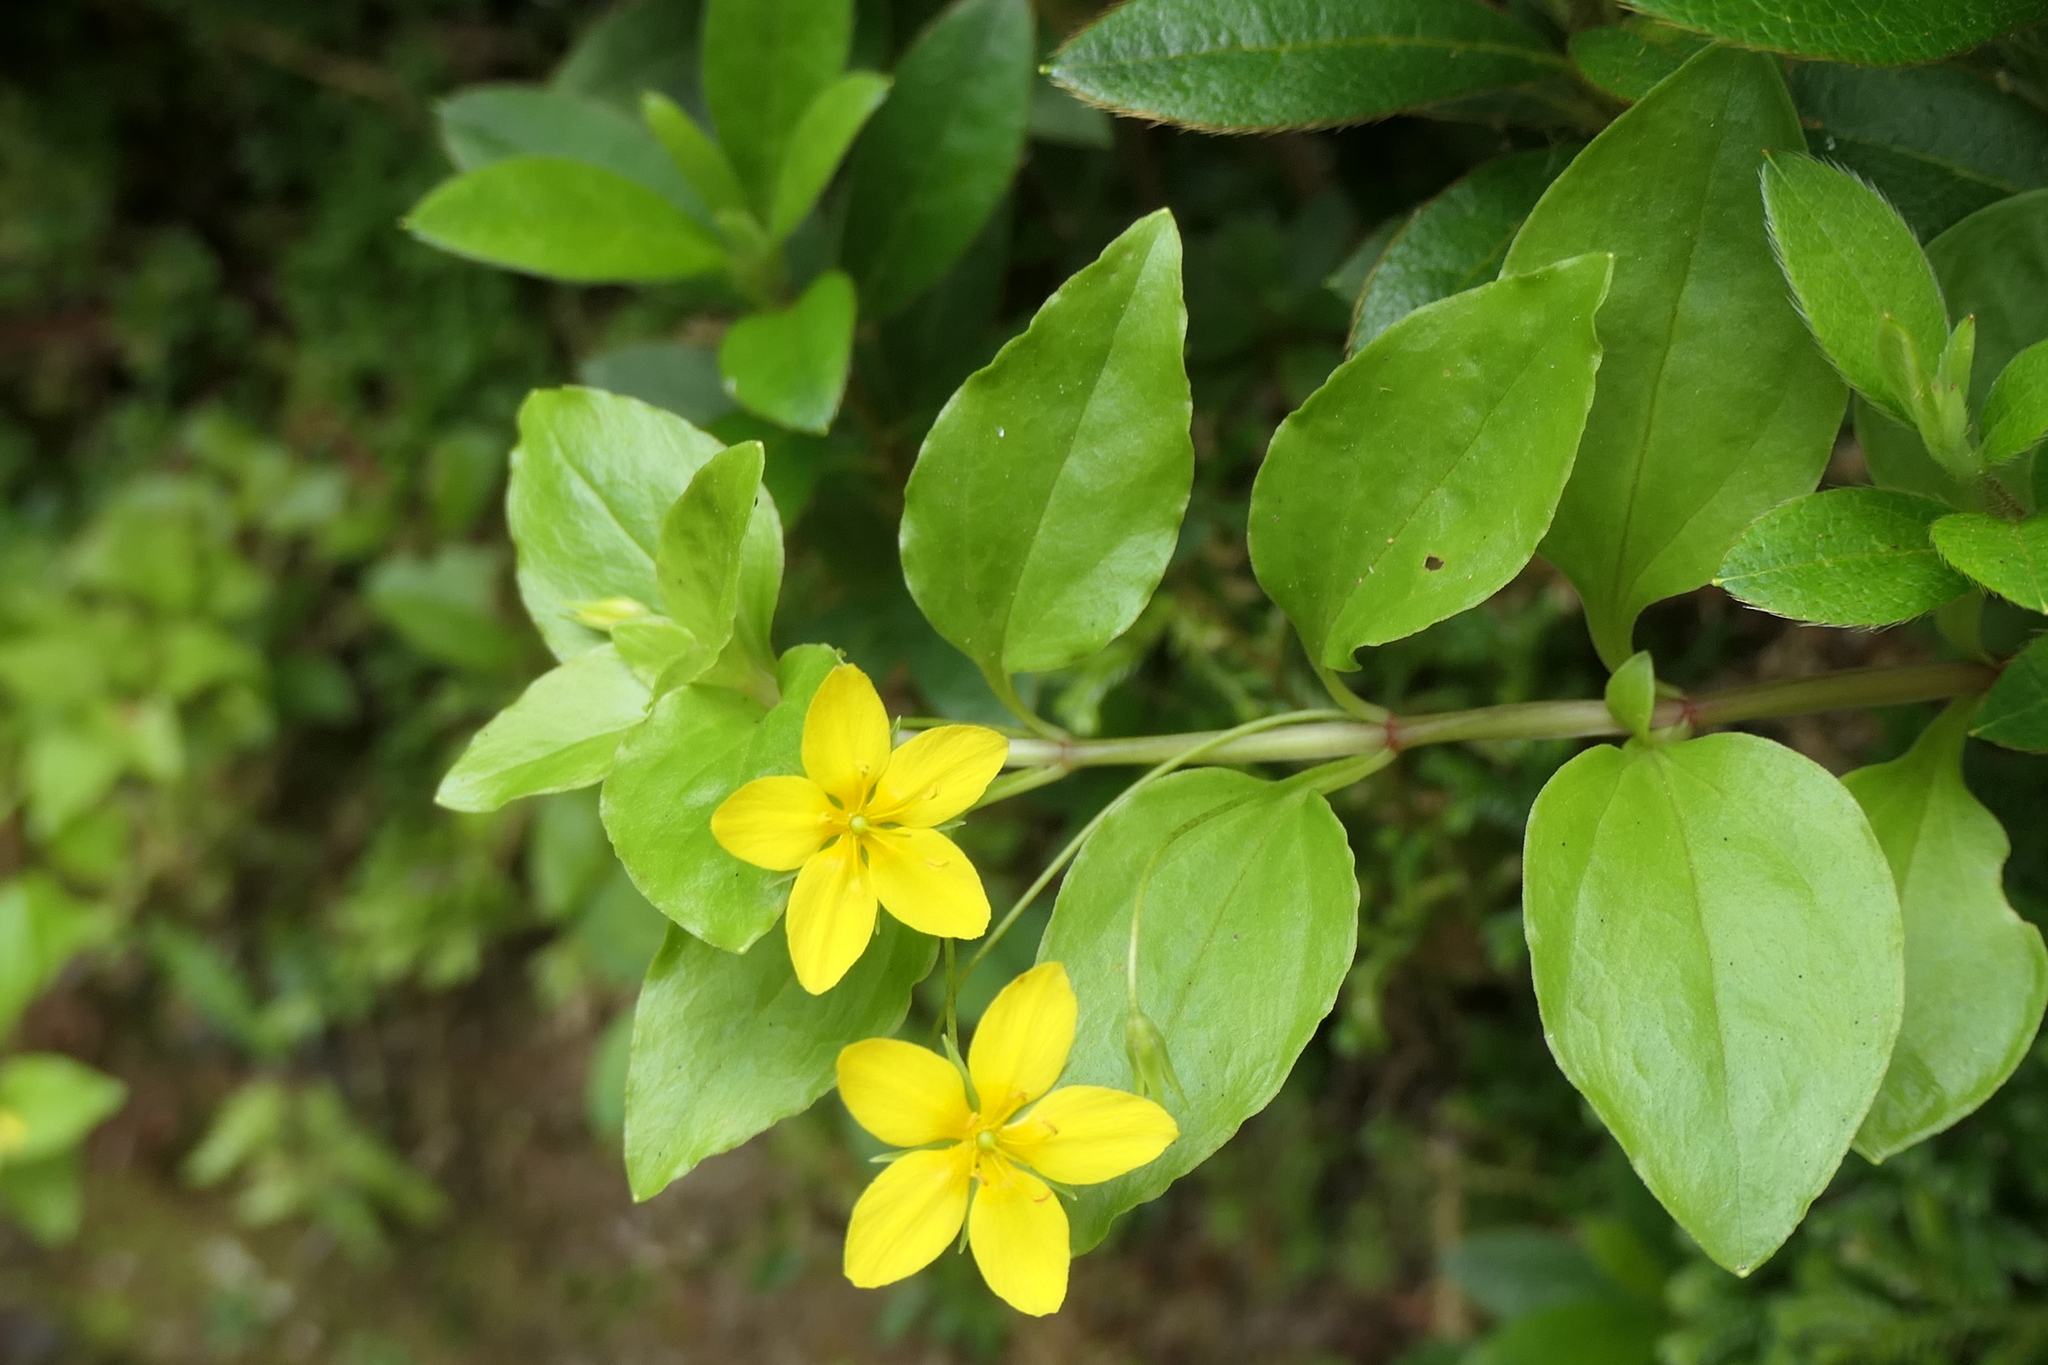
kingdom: Plantae
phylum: Tracheophyta
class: Magnoliopsida
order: Ericales
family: Primulaceae
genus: Lysimachia
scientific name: Lysimachia azorica
